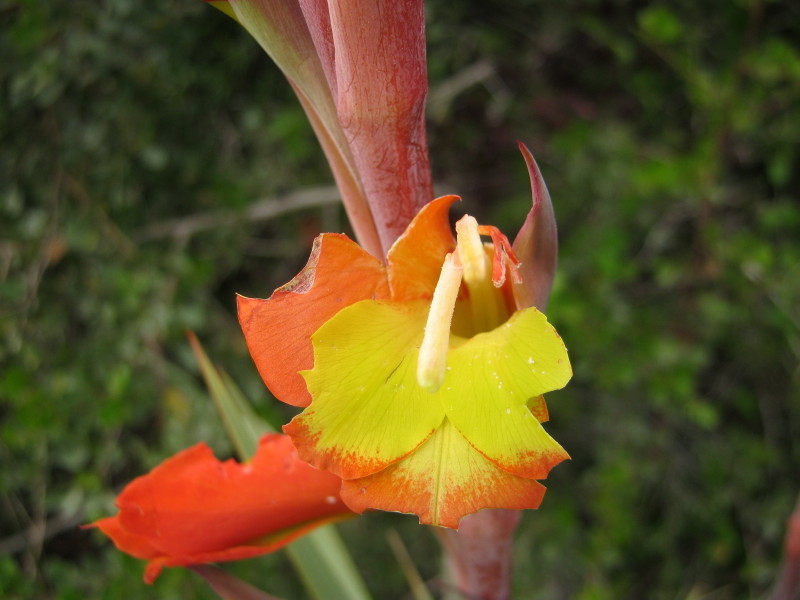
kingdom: Plantae
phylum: Tracheophyta
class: Liliopsida
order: Asparagales
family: Iridaceae
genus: Gladiolus
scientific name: Gladiolus dalenii
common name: Cornflag
